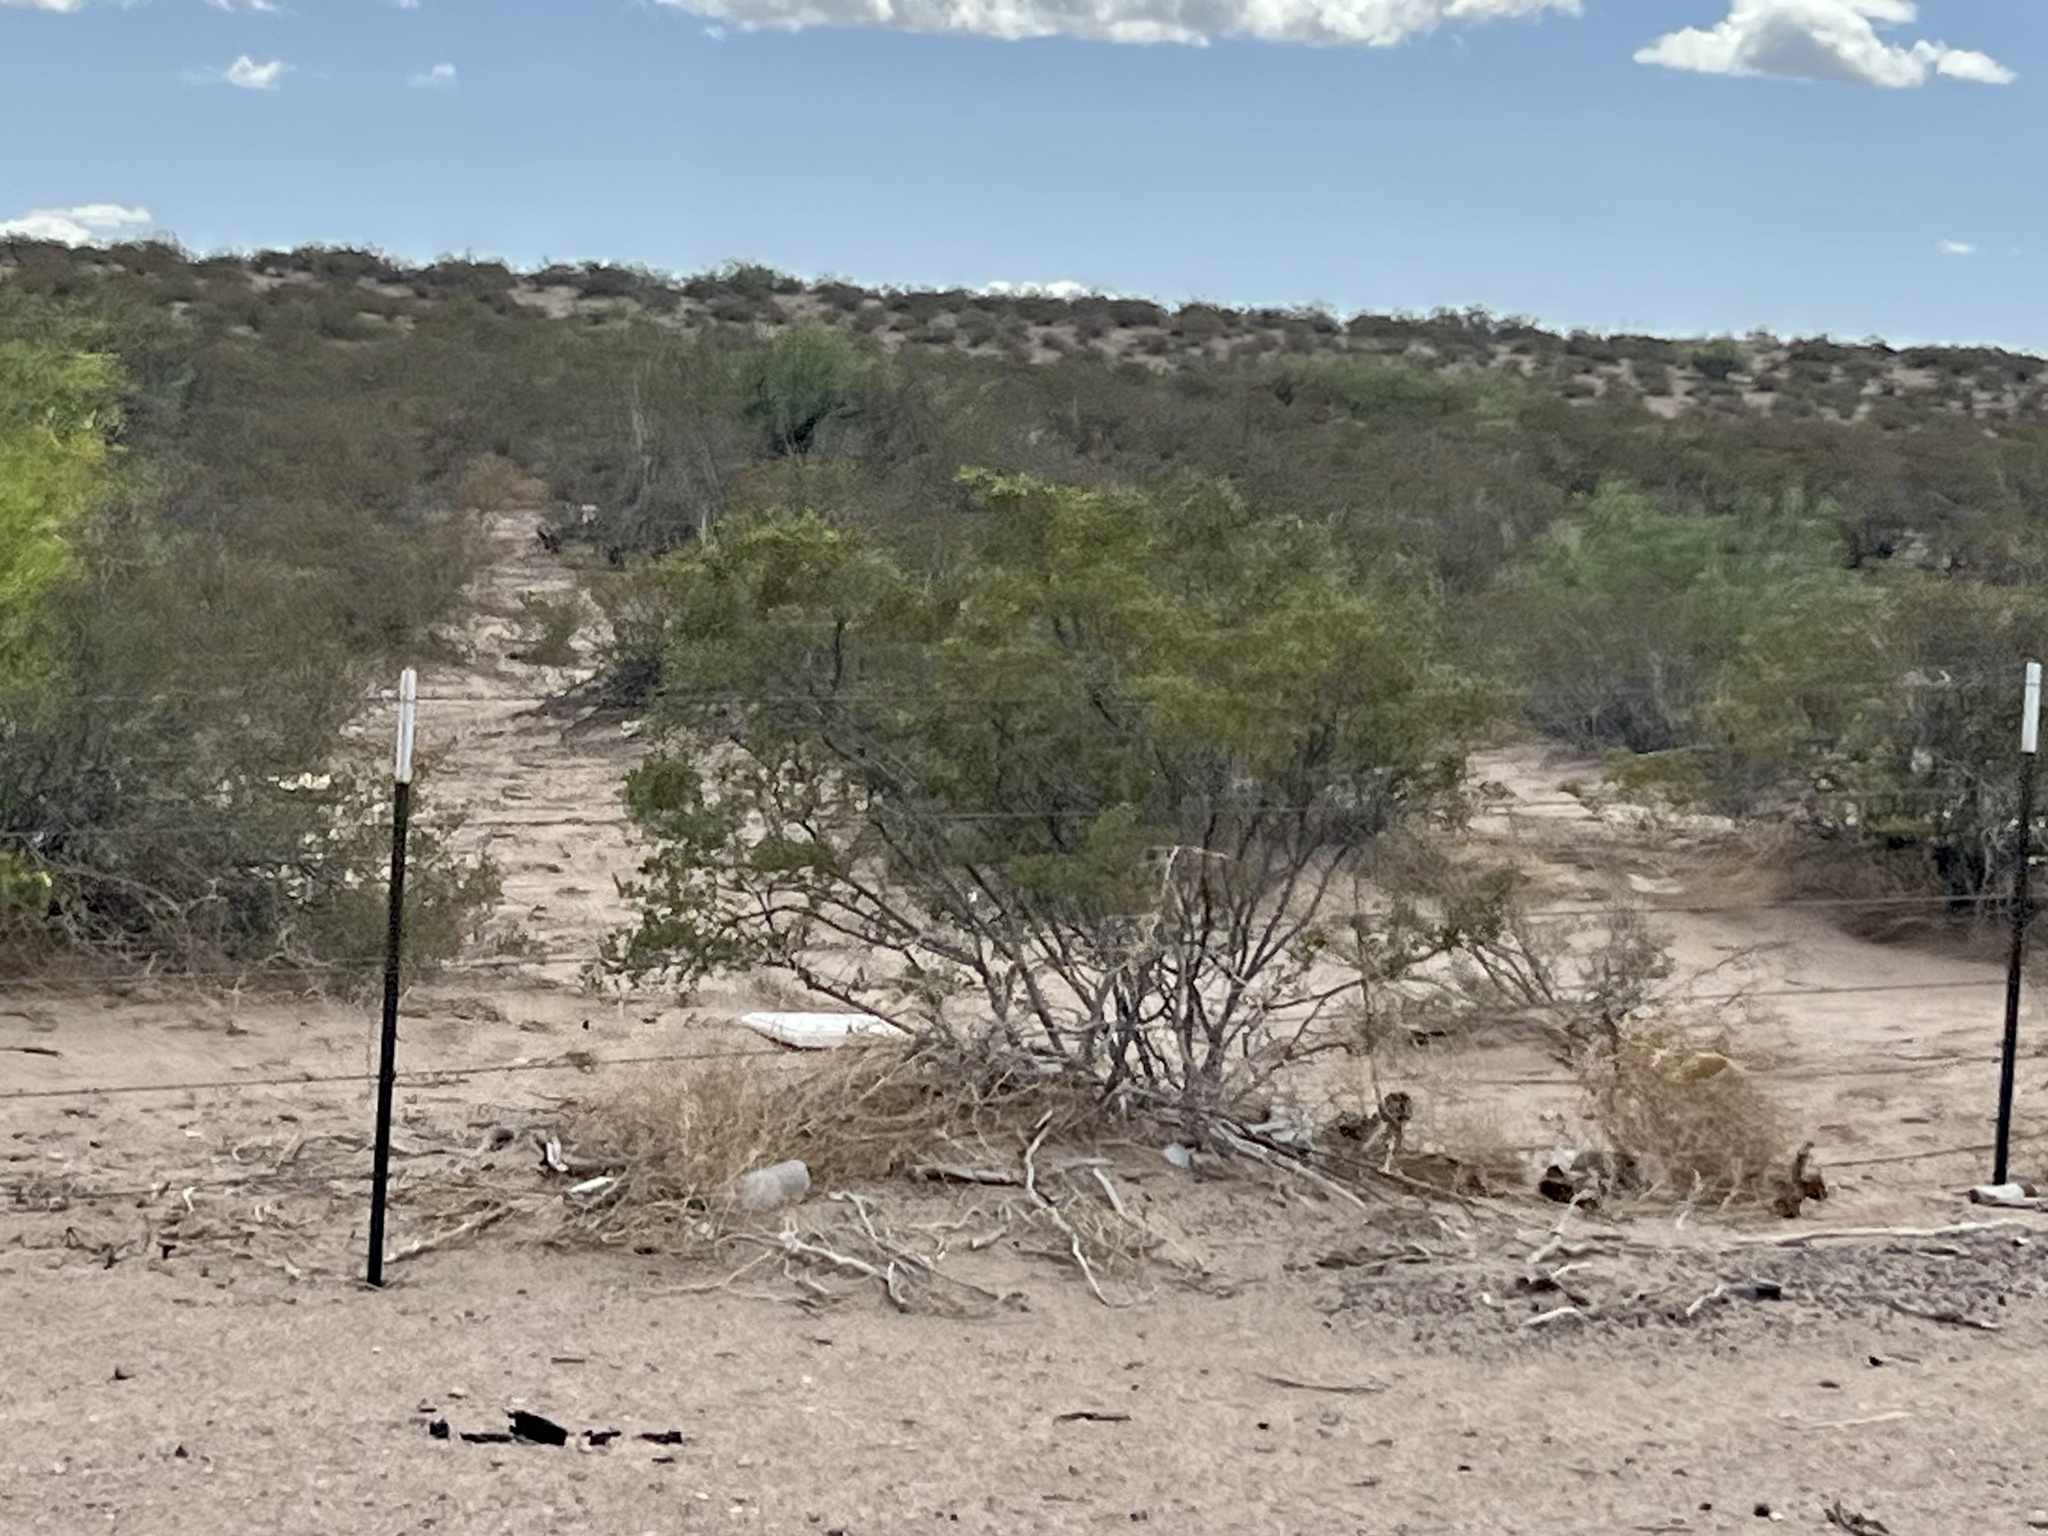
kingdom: Plantae
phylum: Tracheophyta
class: Magnoliopsida
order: Zygophyllales
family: Zygophyllaceae
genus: Larrea
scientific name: Larrea tridentata
